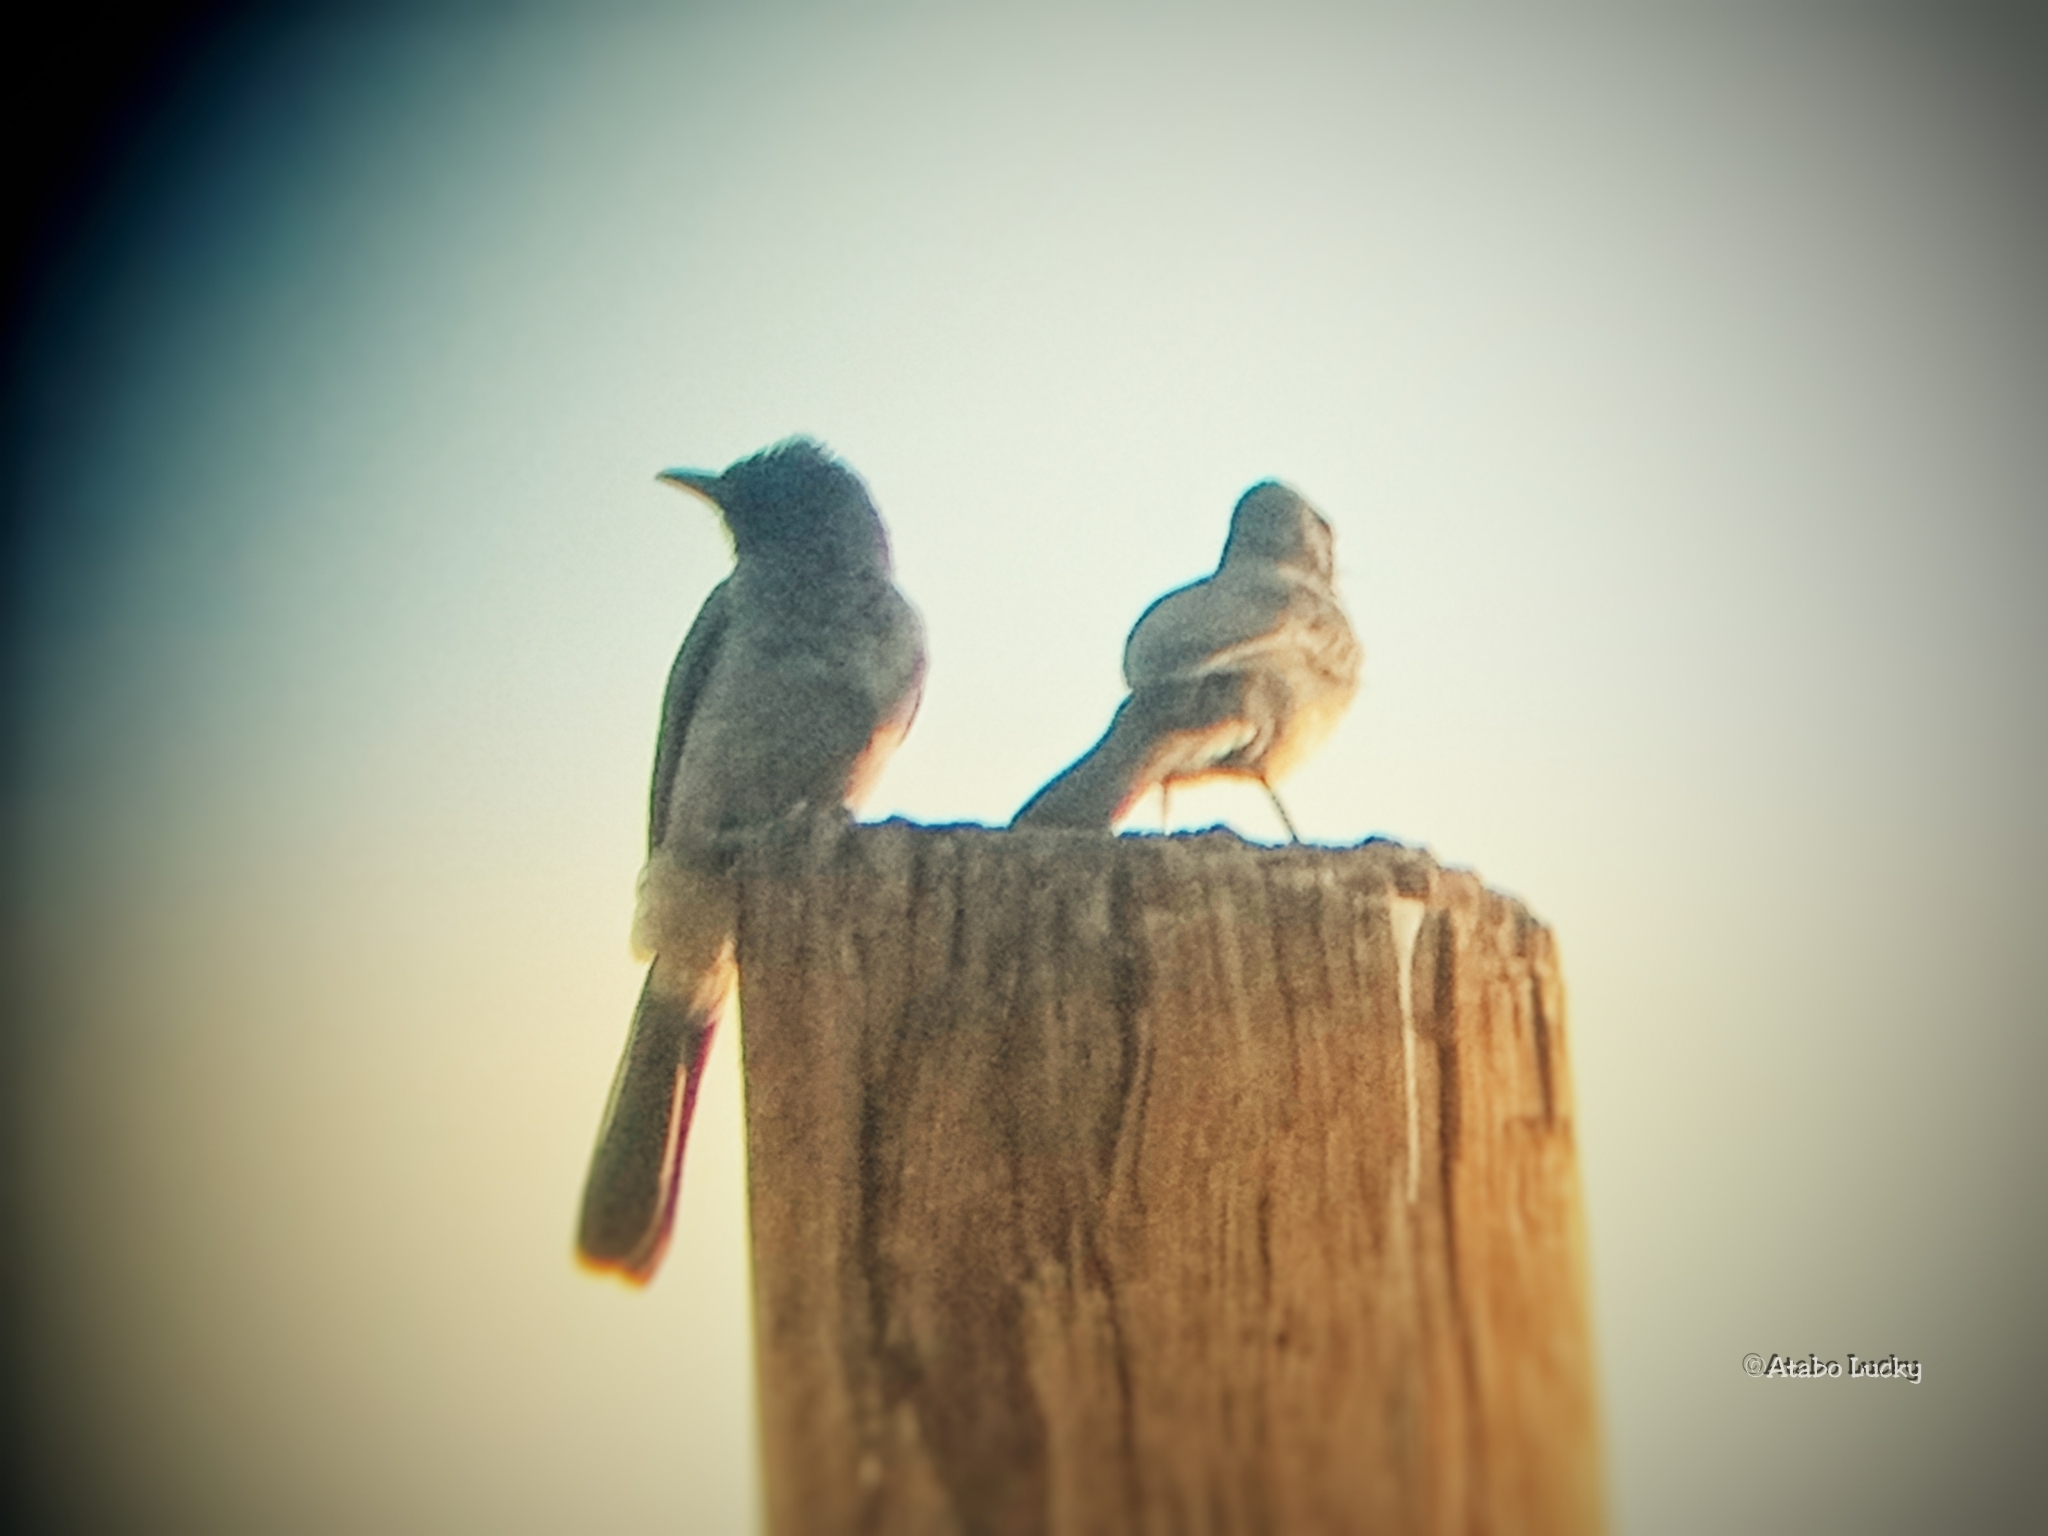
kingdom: Animalia
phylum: Chordata
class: Aves
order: Passeriformes
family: Pycnonotidae
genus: Pycnonotus
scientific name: Pycnonotus barbatus
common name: Common bulbul
